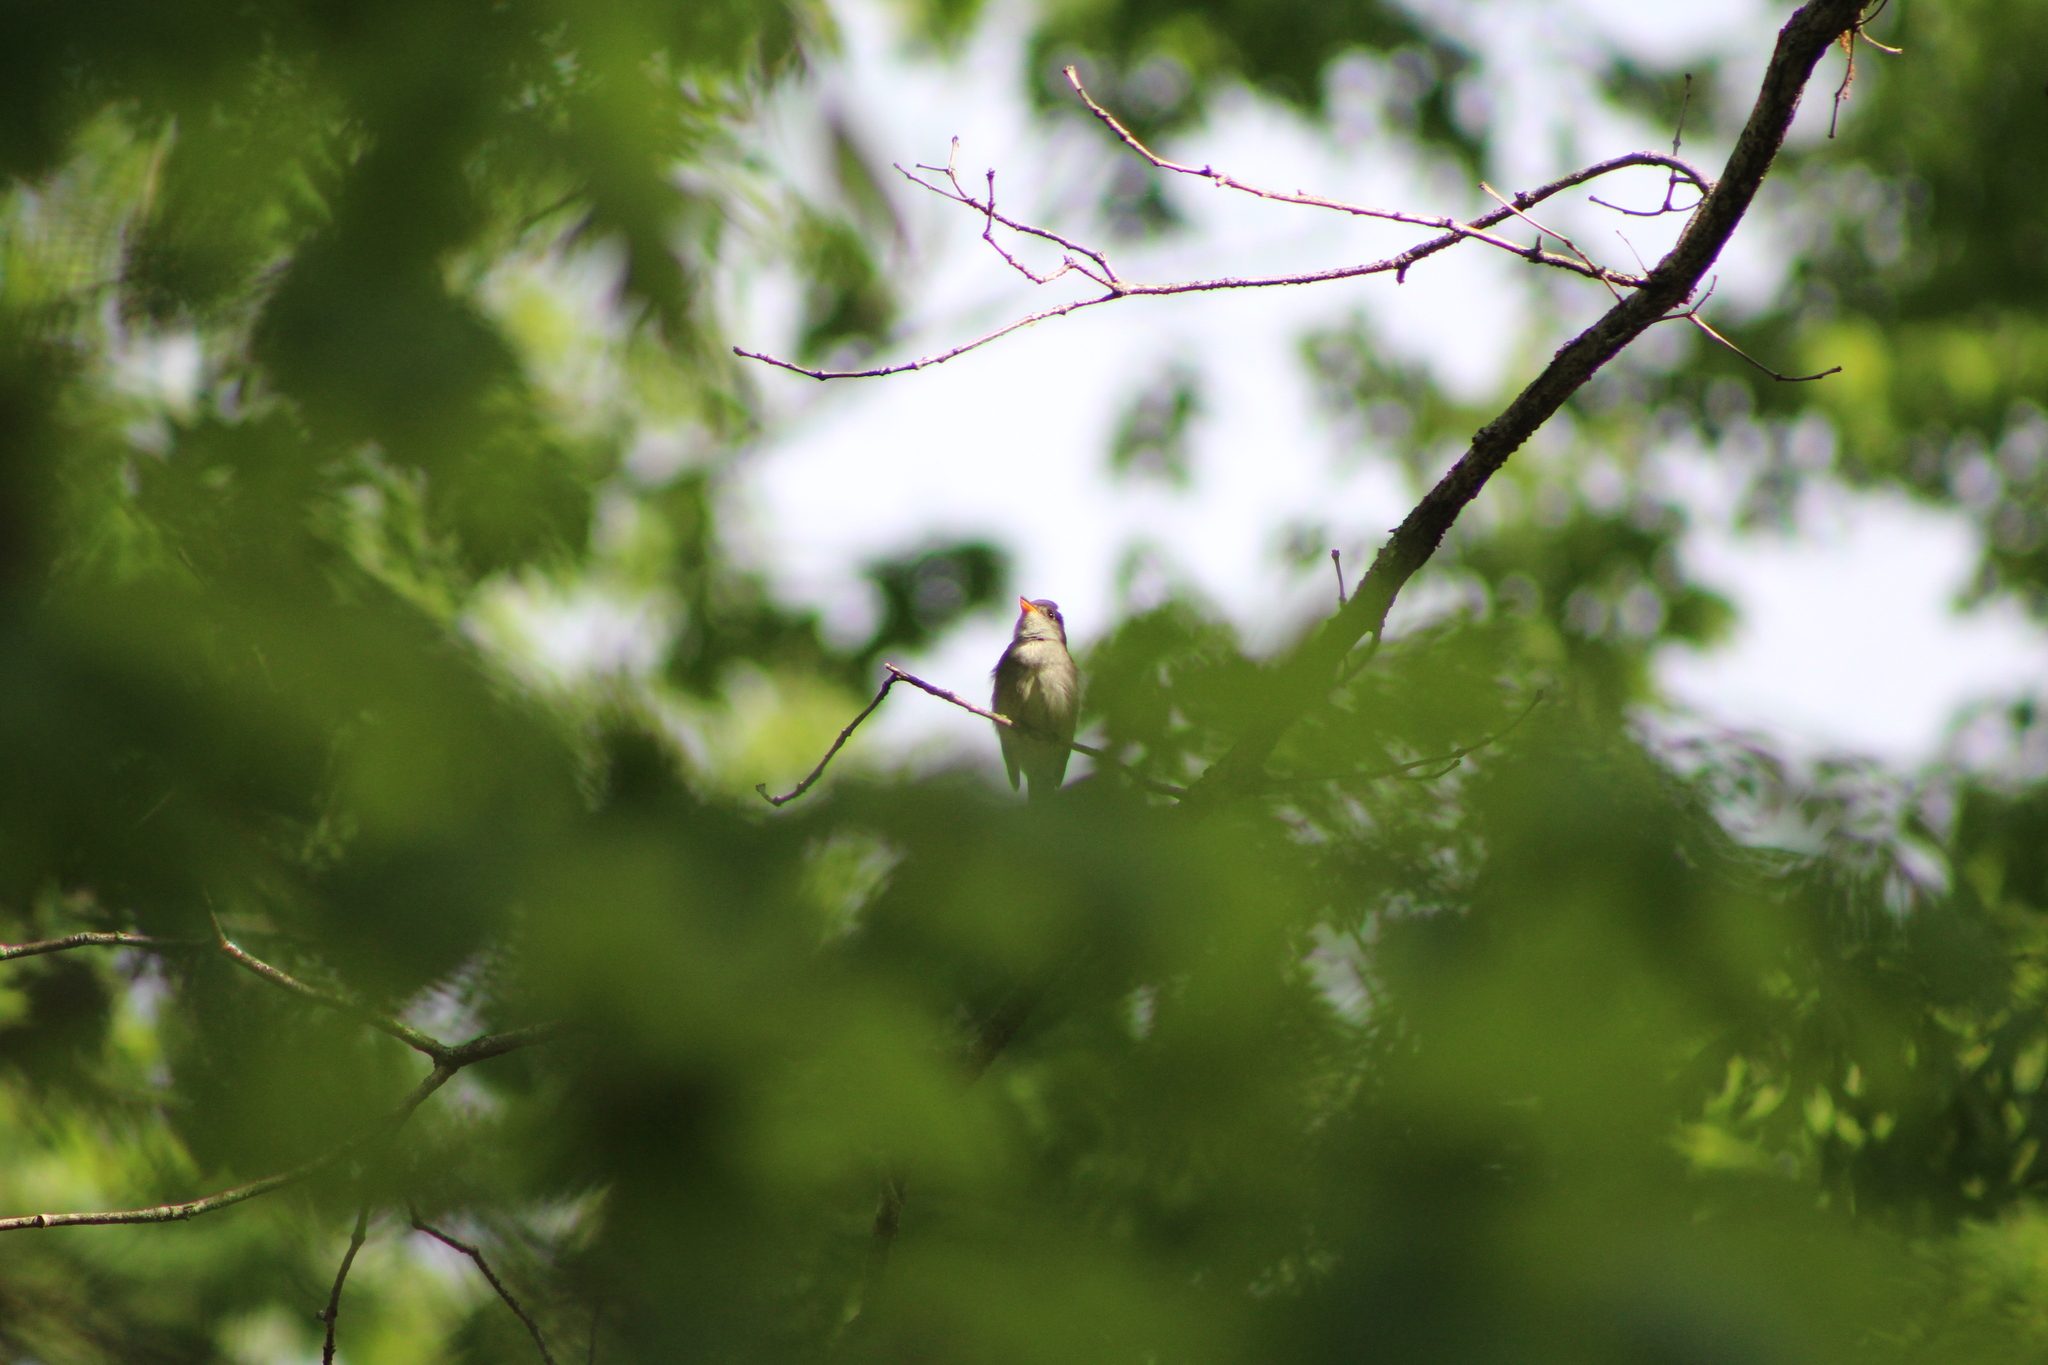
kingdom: Animalia
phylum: Chordata
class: Aves
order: Passeriformes
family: Tyrannidae
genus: Contopus
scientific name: Contopus virens
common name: Eastern wood-pewee
